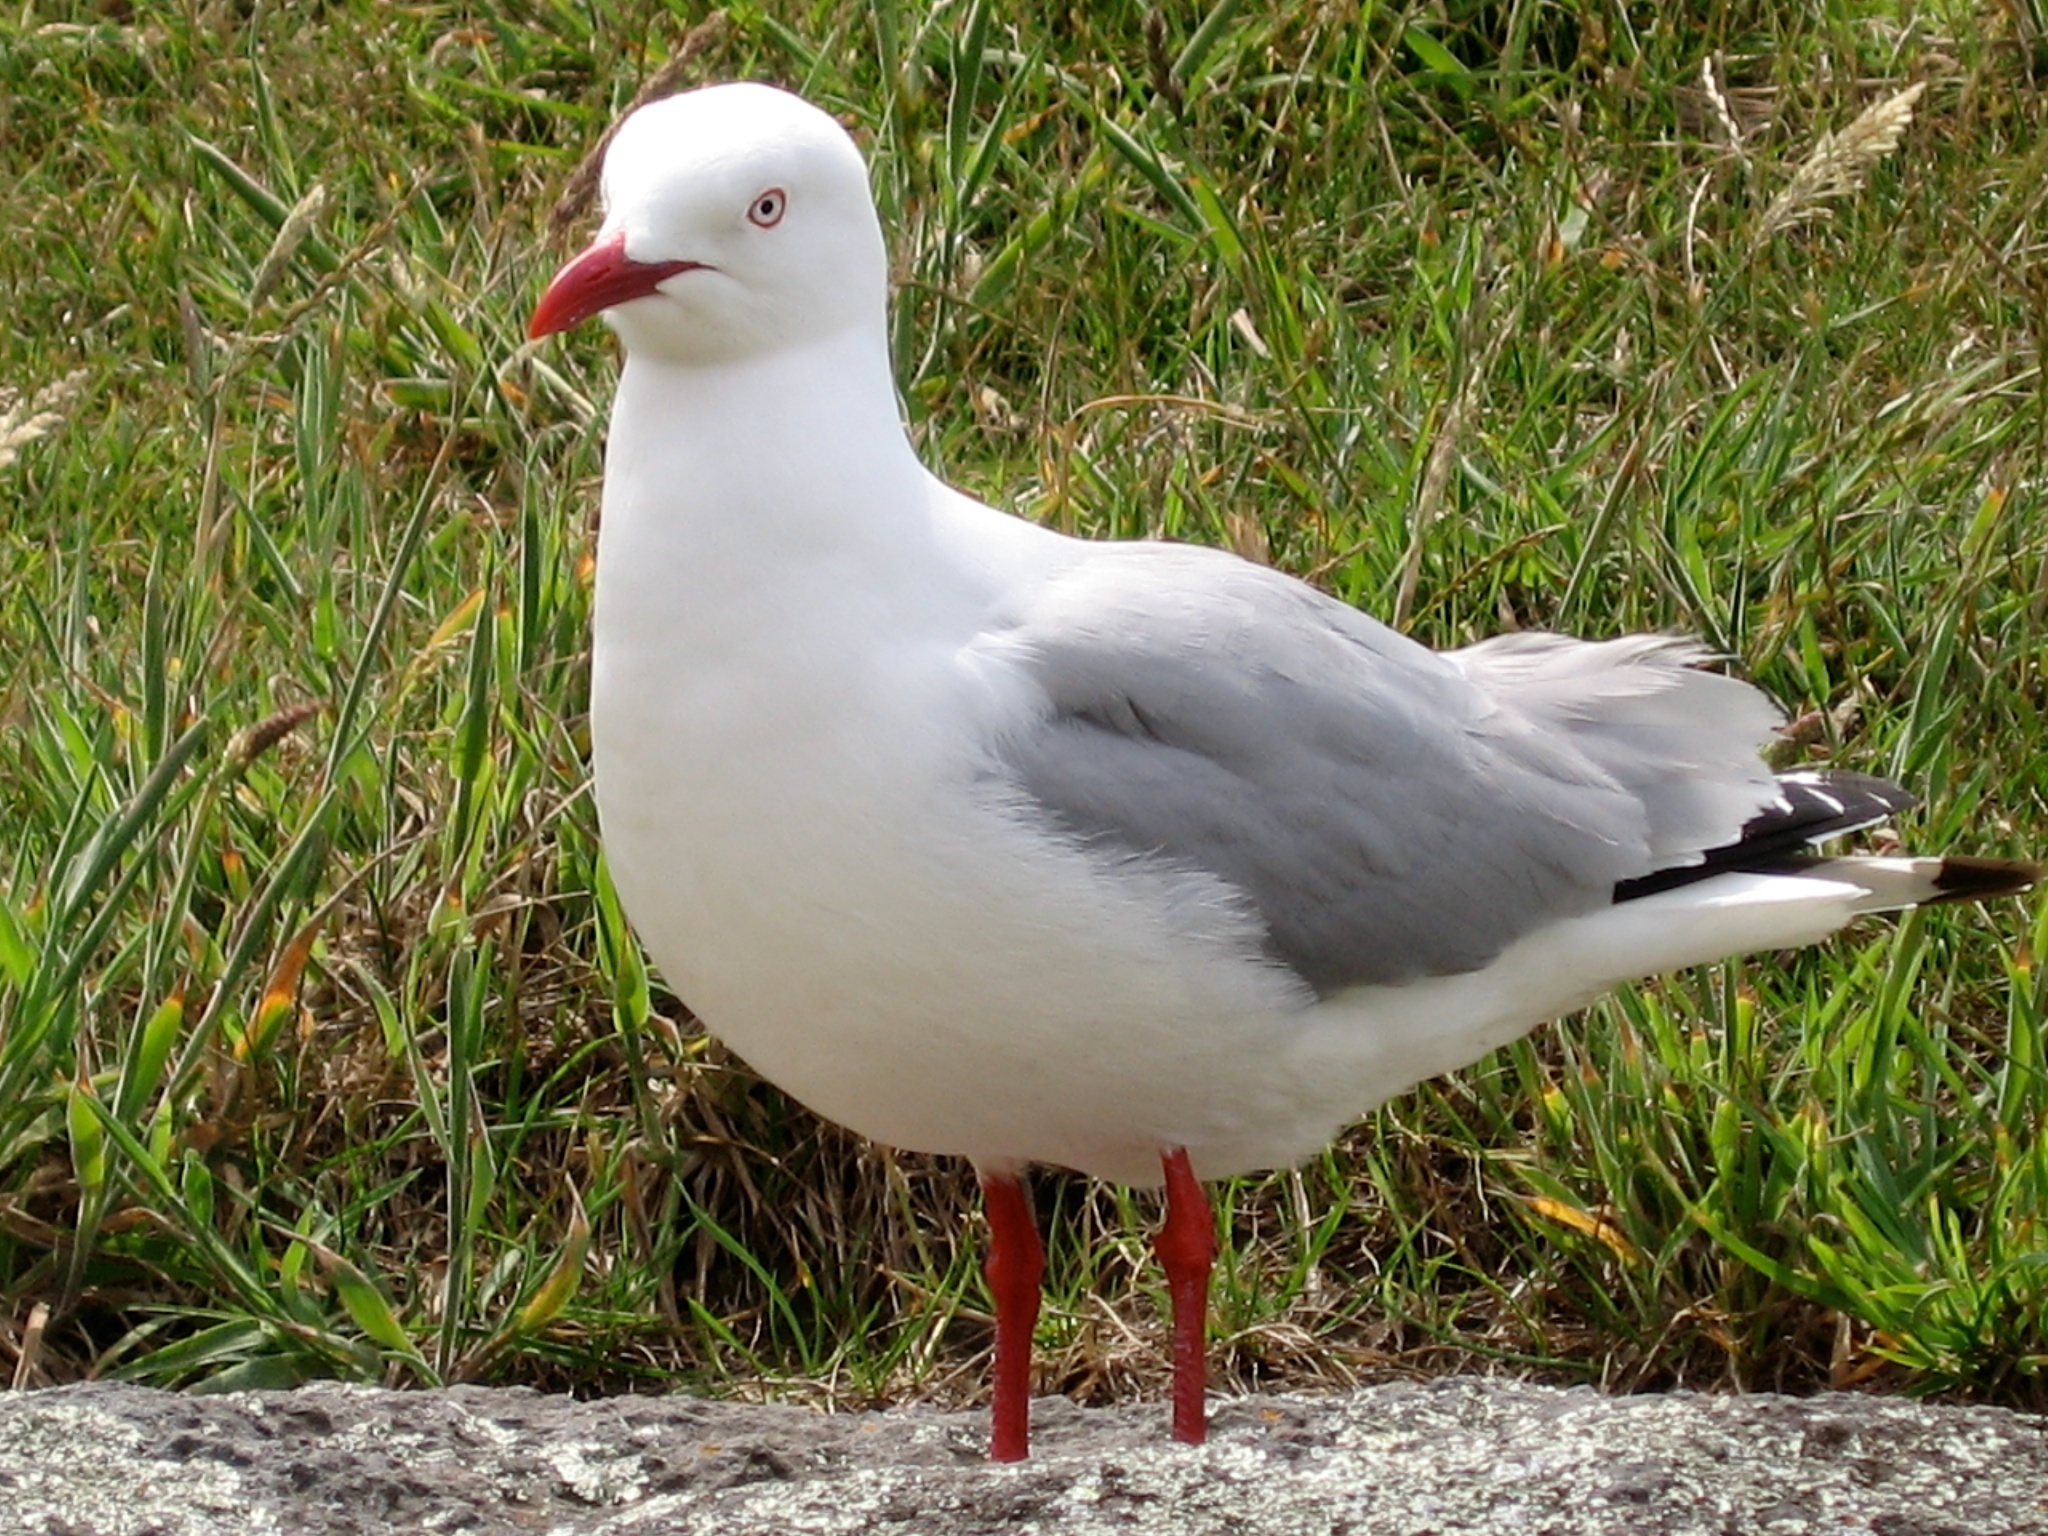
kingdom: Animalia
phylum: Chordata
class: Aves
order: Charadriiformes
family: Laridae
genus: Chroicocephalus
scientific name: Chroicocephalus novaehollandiae
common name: Silver gull
